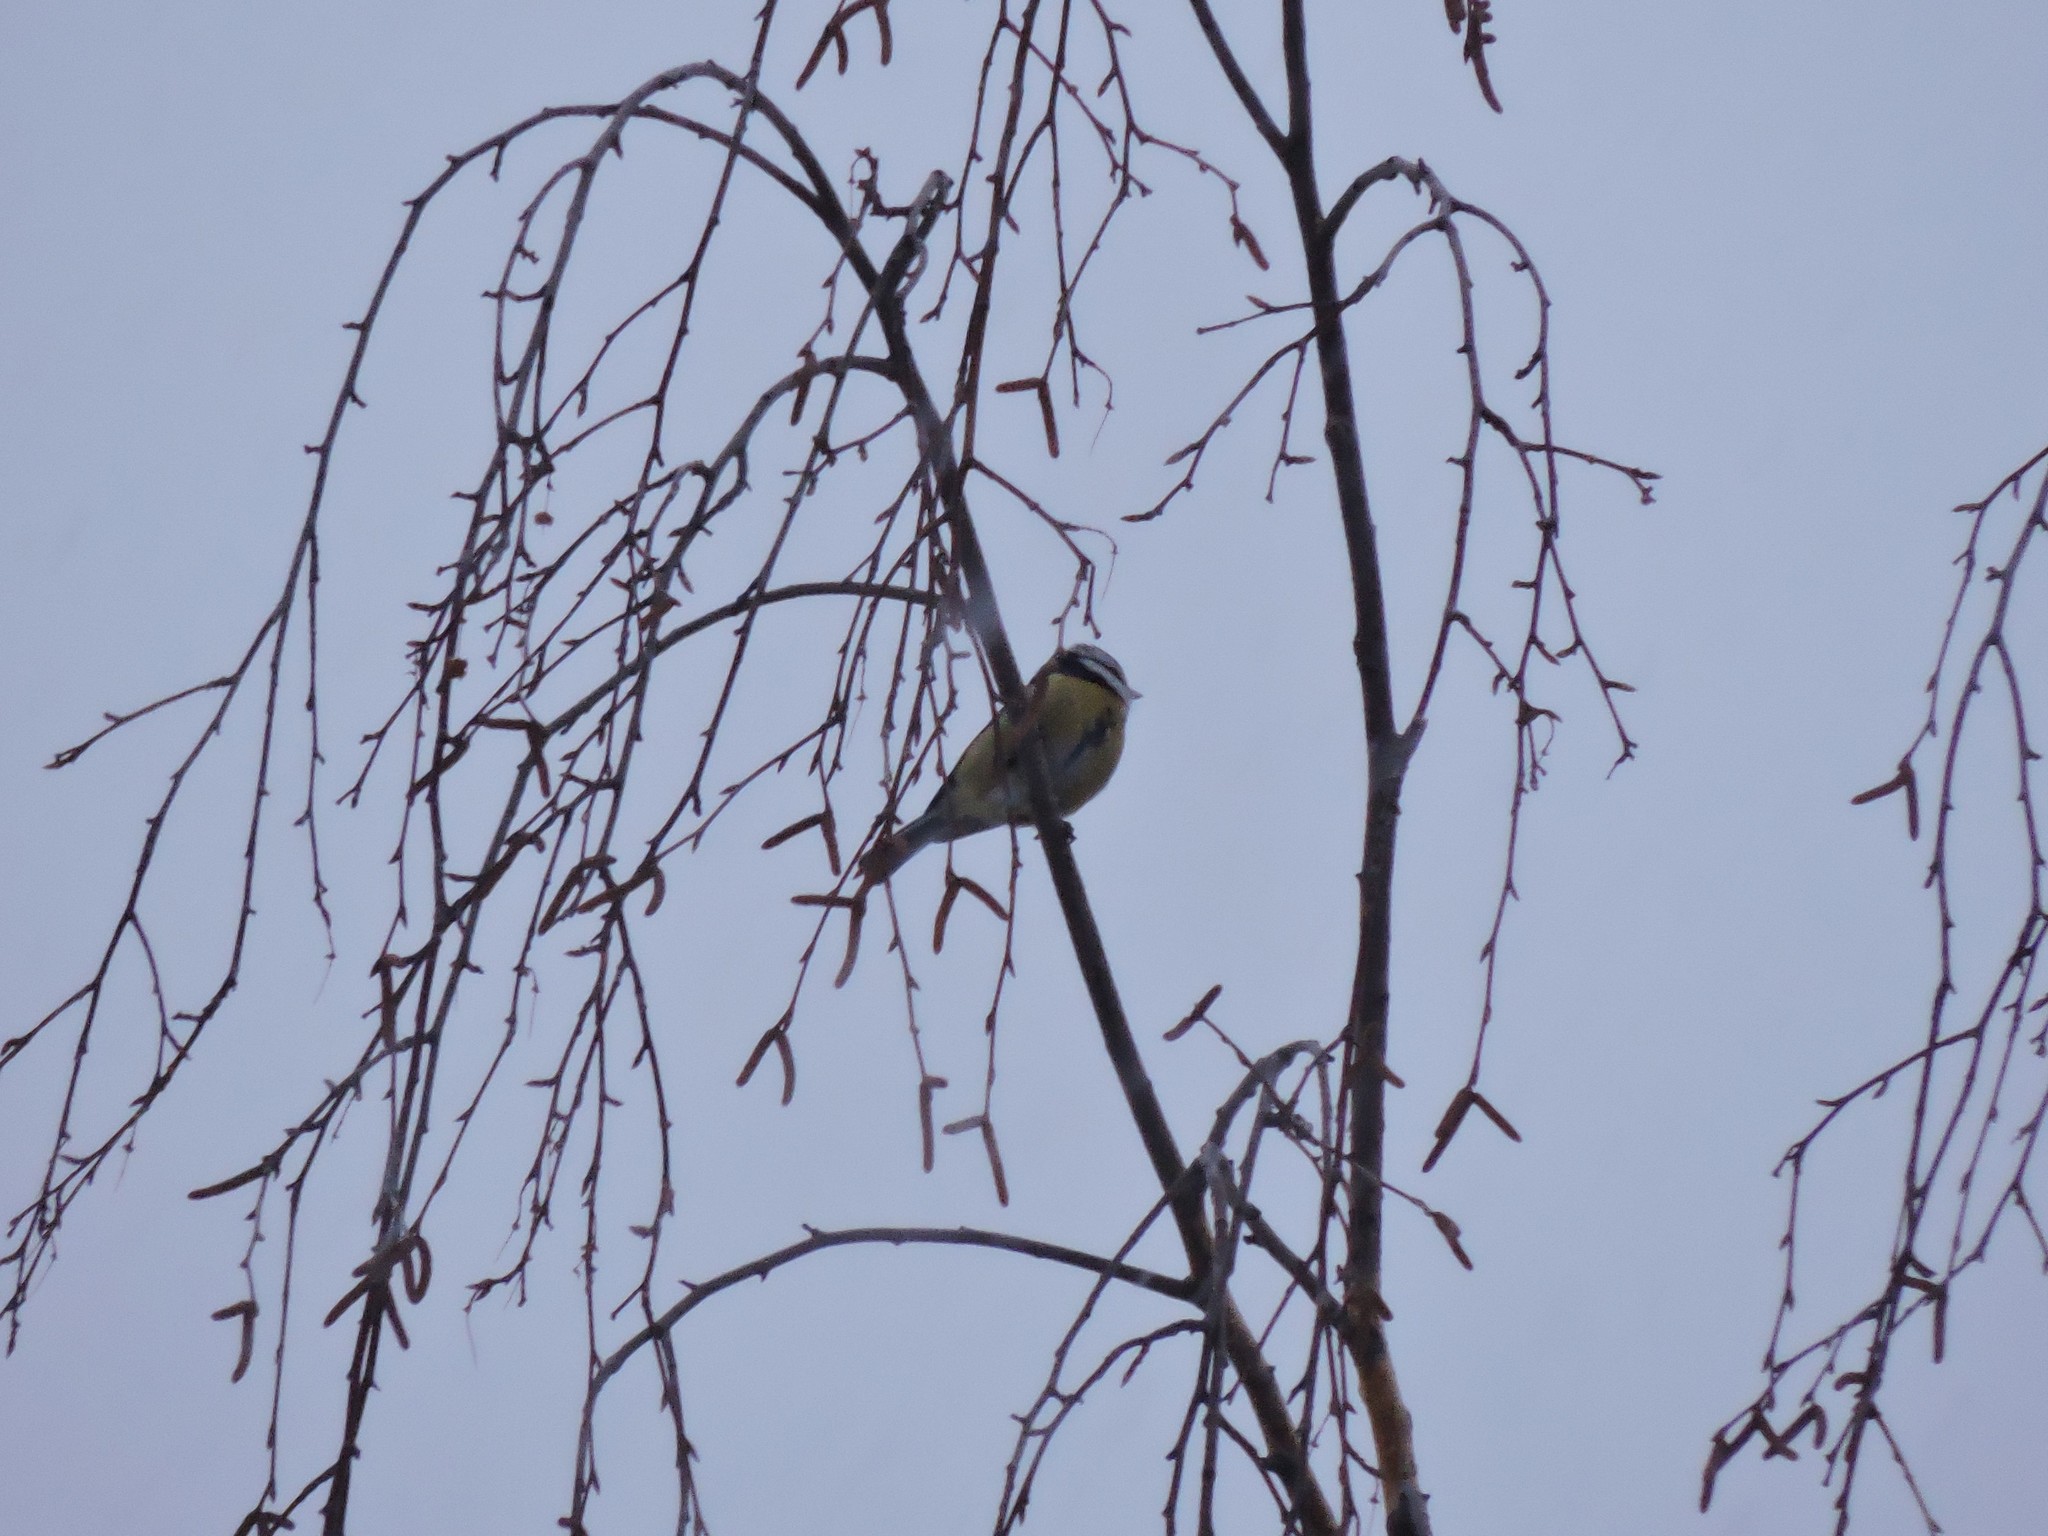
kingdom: Animalia
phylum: Chordata
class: Aves
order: Passeriformes
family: Paridae
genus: Cyanistes
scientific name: Cyanistes caeruleus
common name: Eurasian blue tit
